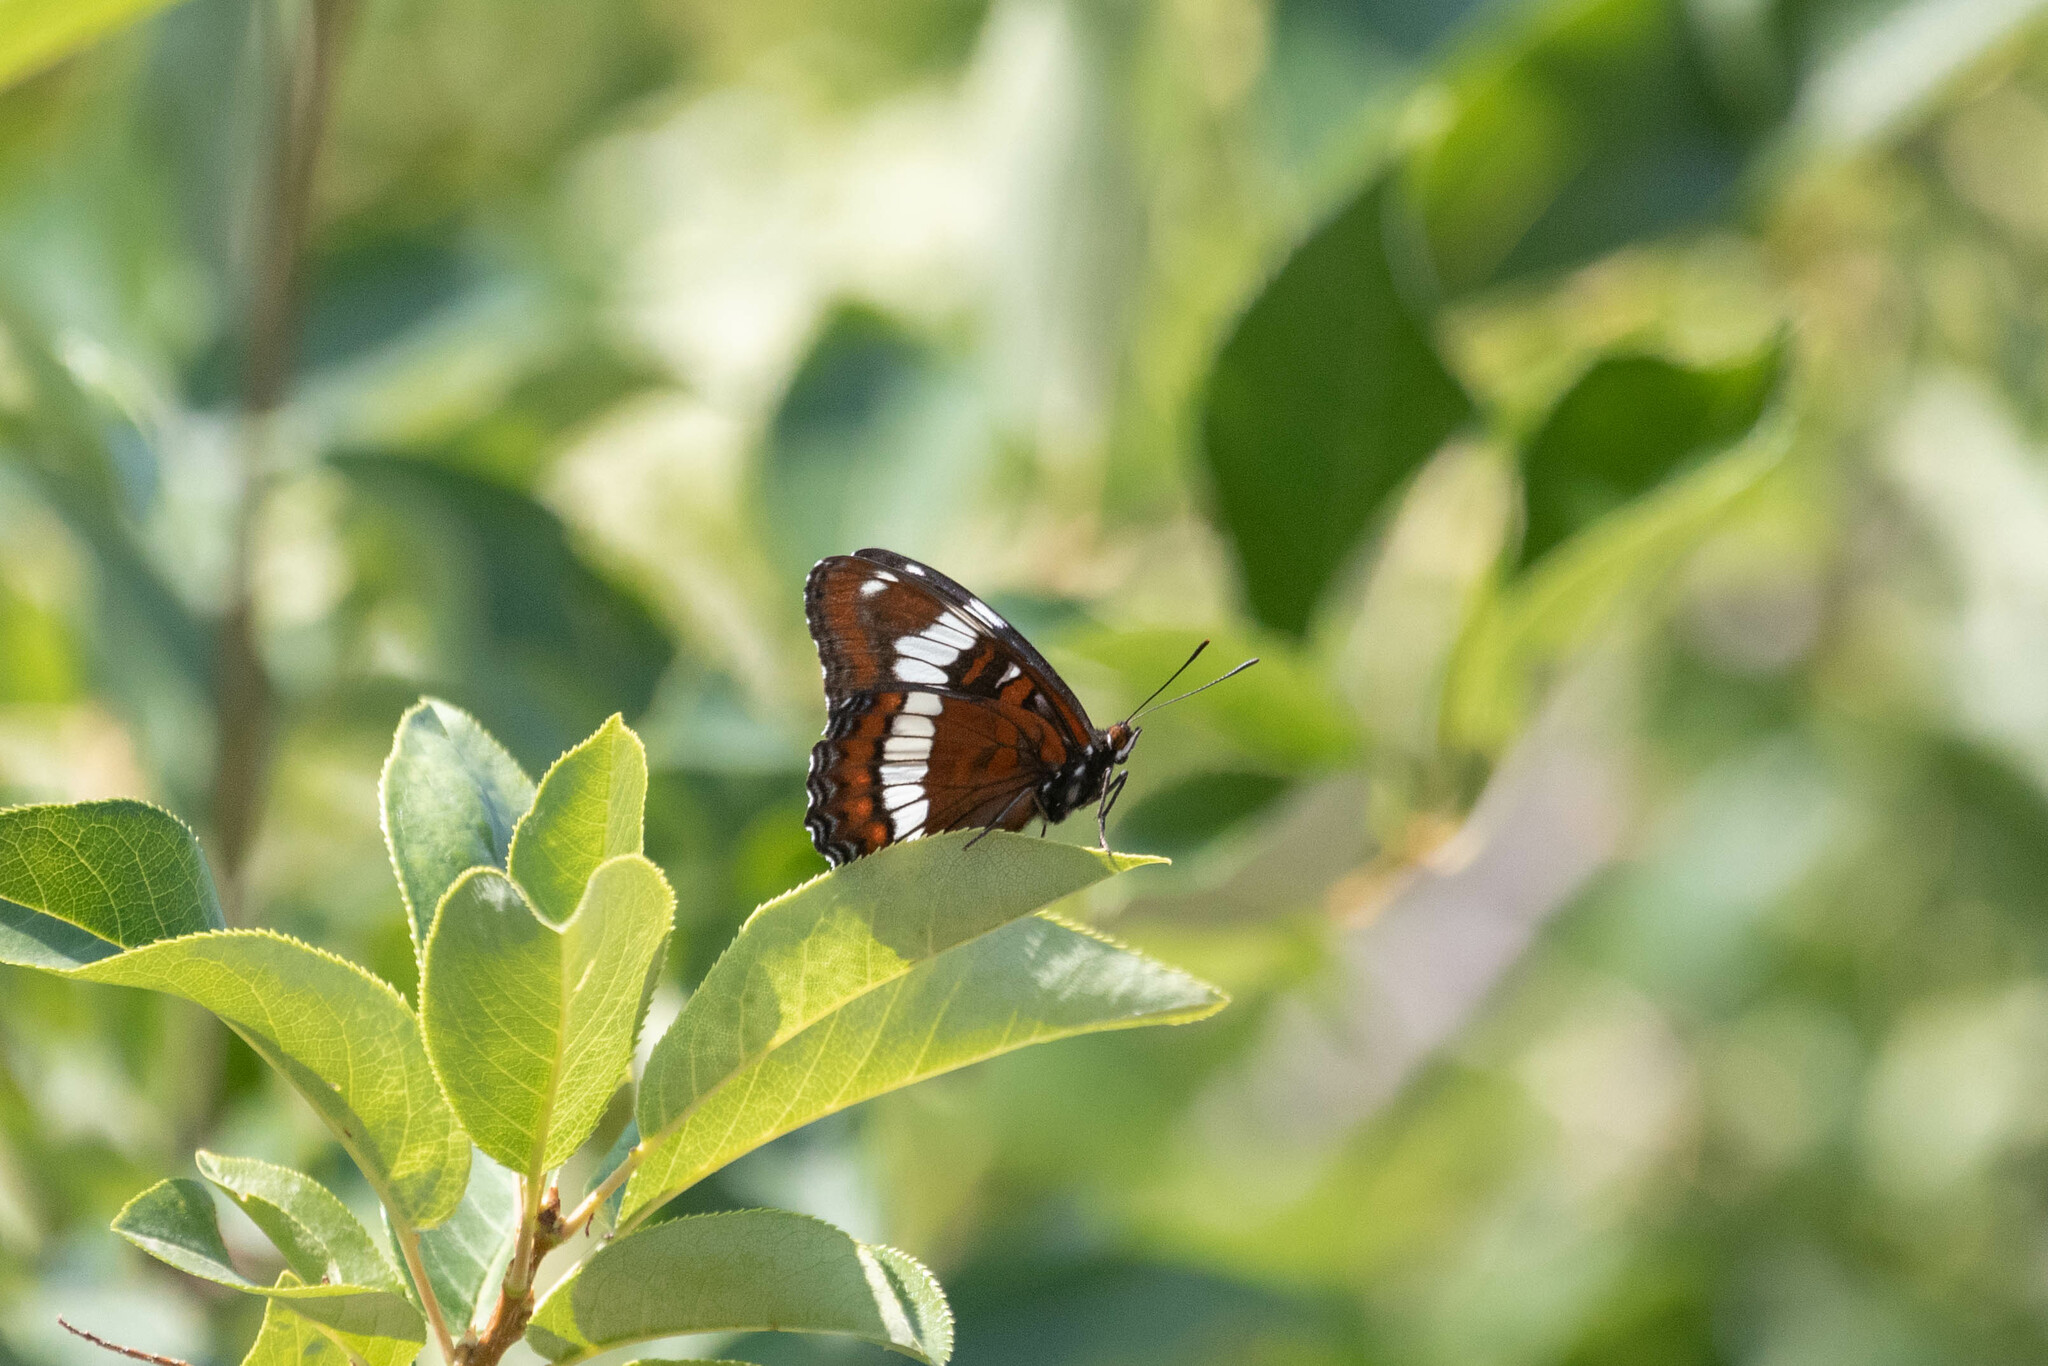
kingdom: Animalia
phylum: Arthropoda
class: Insecta
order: Lepidoptera
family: Nymphalidae
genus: Limenitis
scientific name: Limenitis arthemis
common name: Red-spotted admiral
